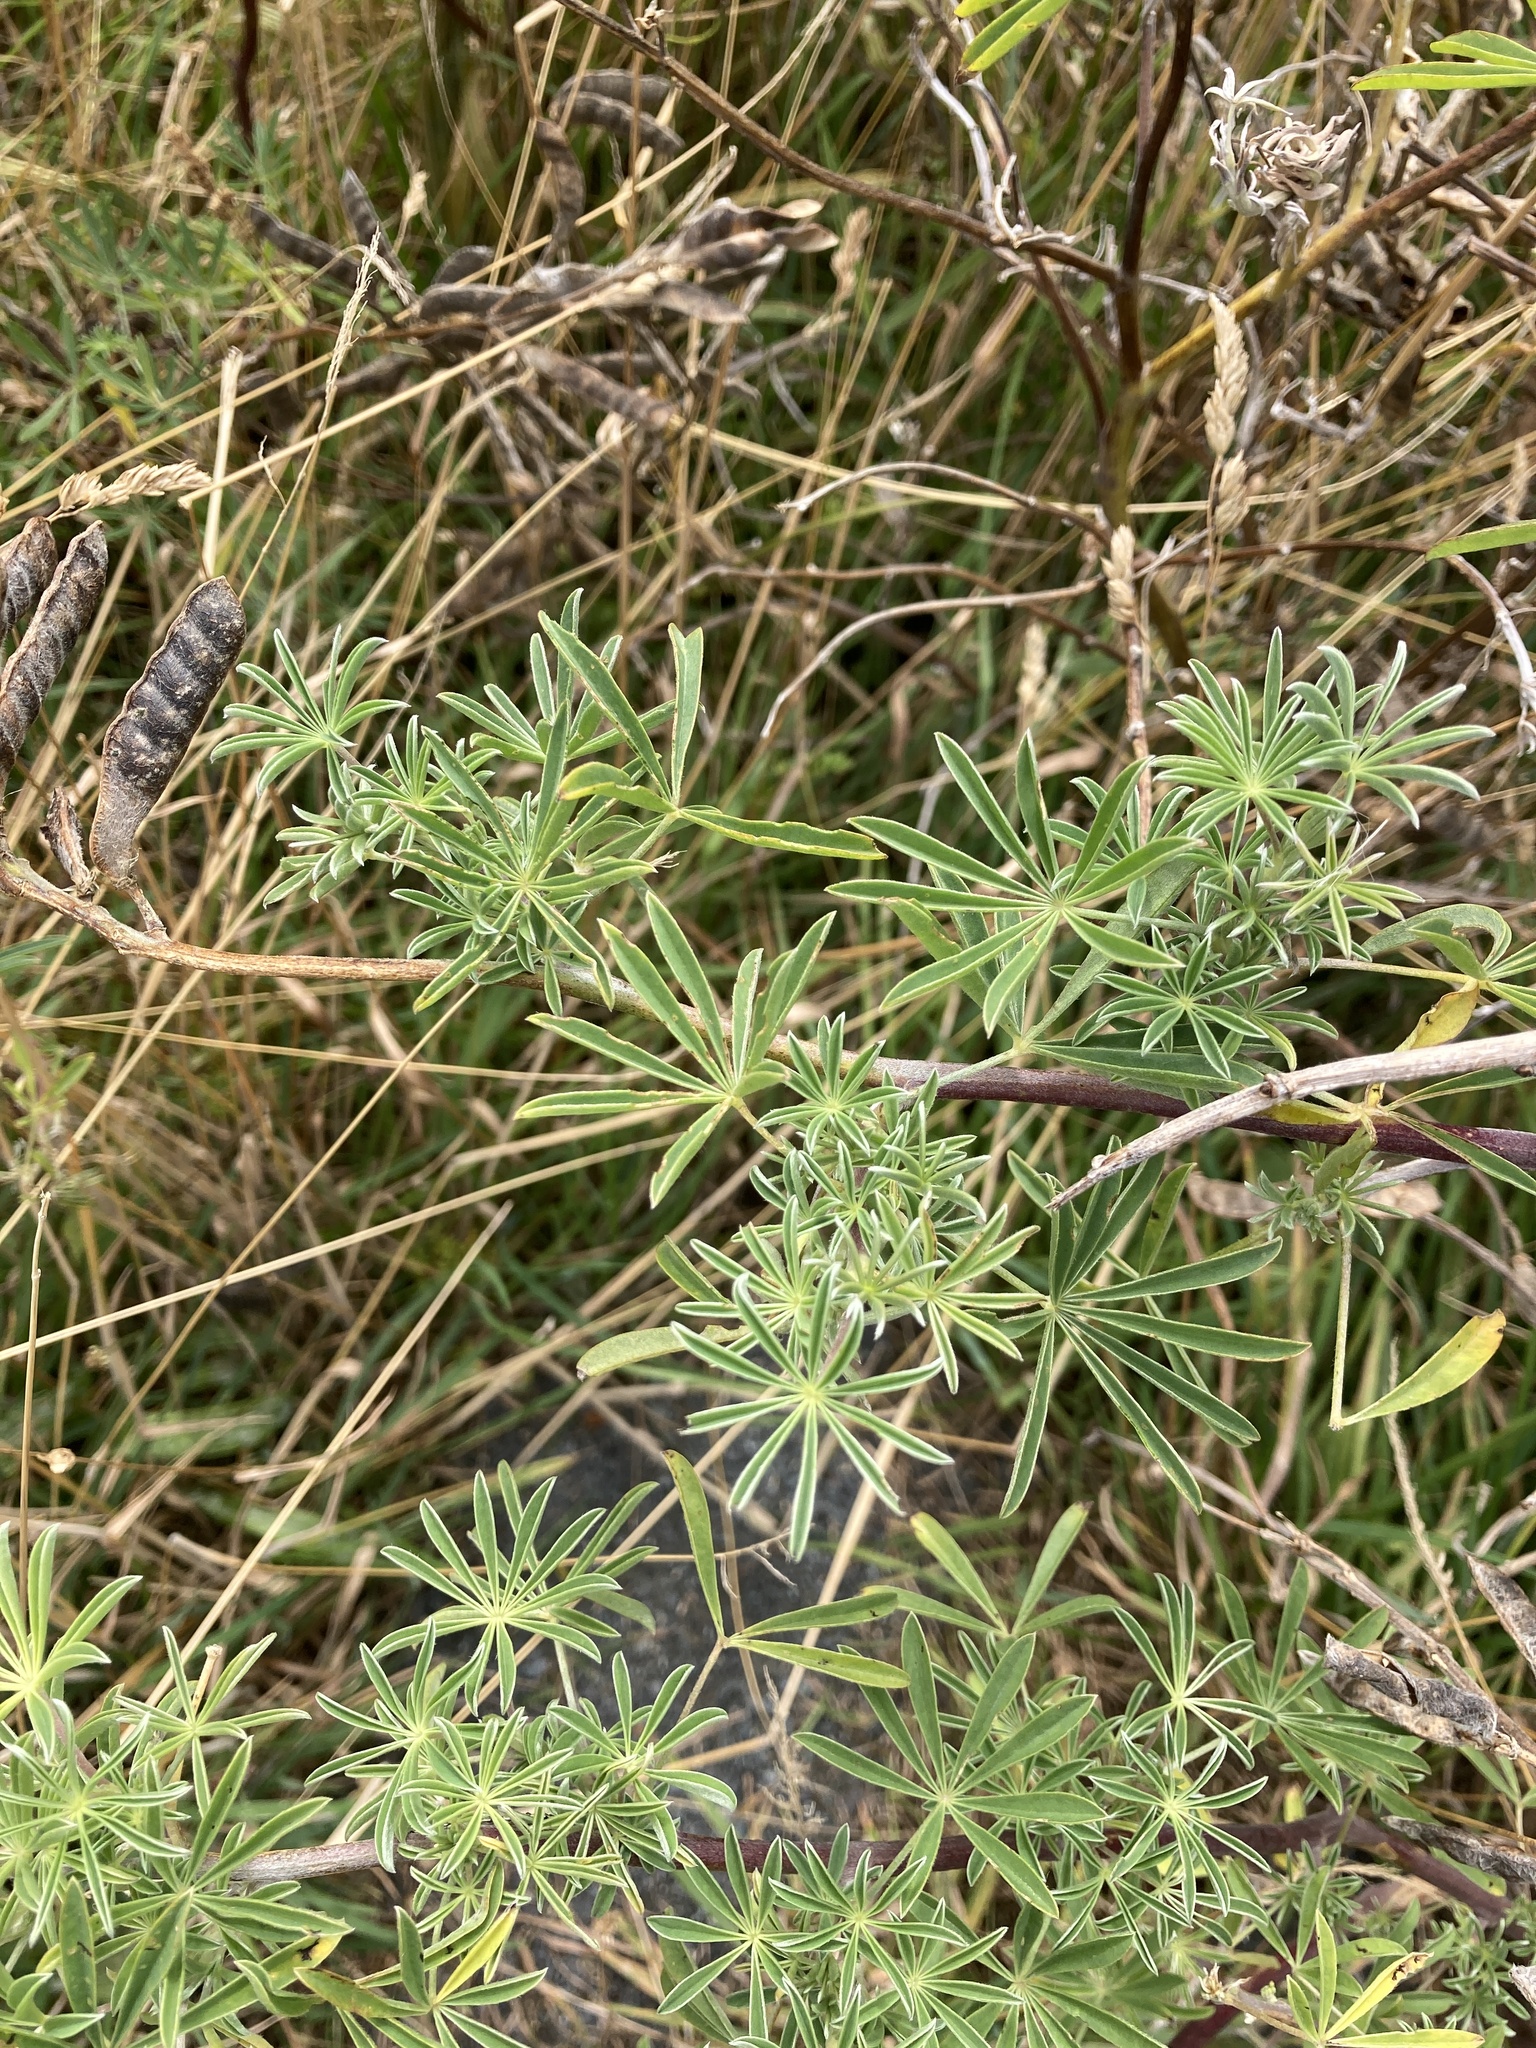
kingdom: Plantae
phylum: Tracheophyta
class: Magnoliopsida
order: Fabales
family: Fabaceae
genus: Lupinus
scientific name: Lupinus arboreus
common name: Yellow bush lupine
